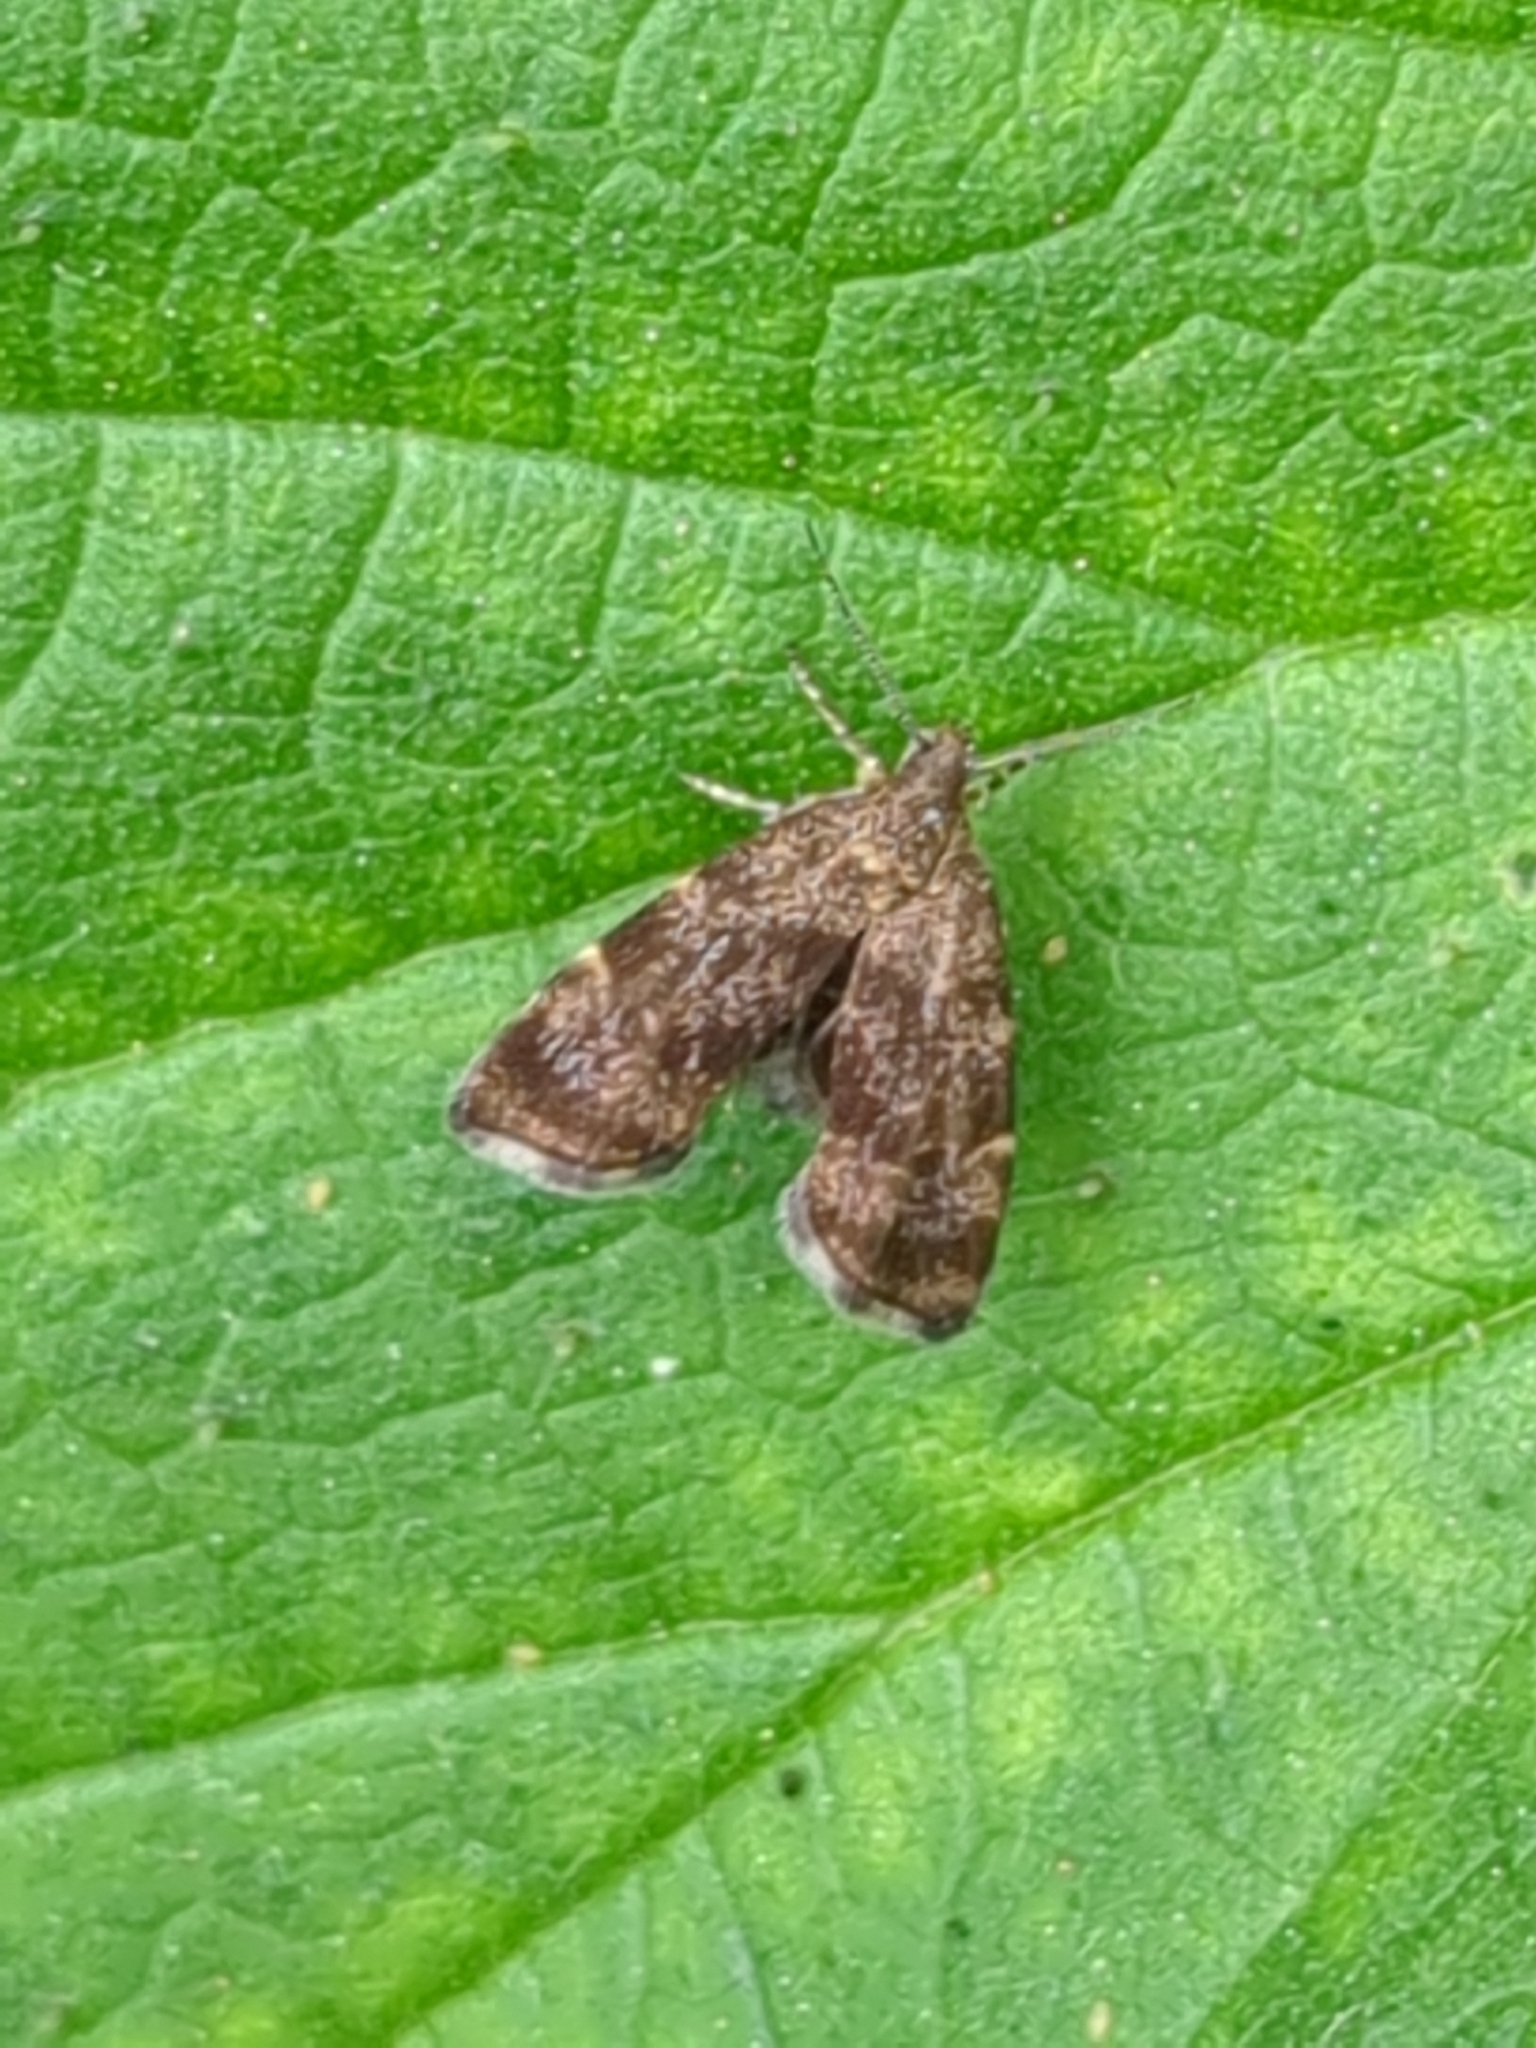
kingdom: Animalia
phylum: Arthropoda
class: Insecta
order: Lepidoptera
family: Choreutidae
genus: Anthophila
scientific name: Anthophila fabriciana
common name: Nettle-tap
